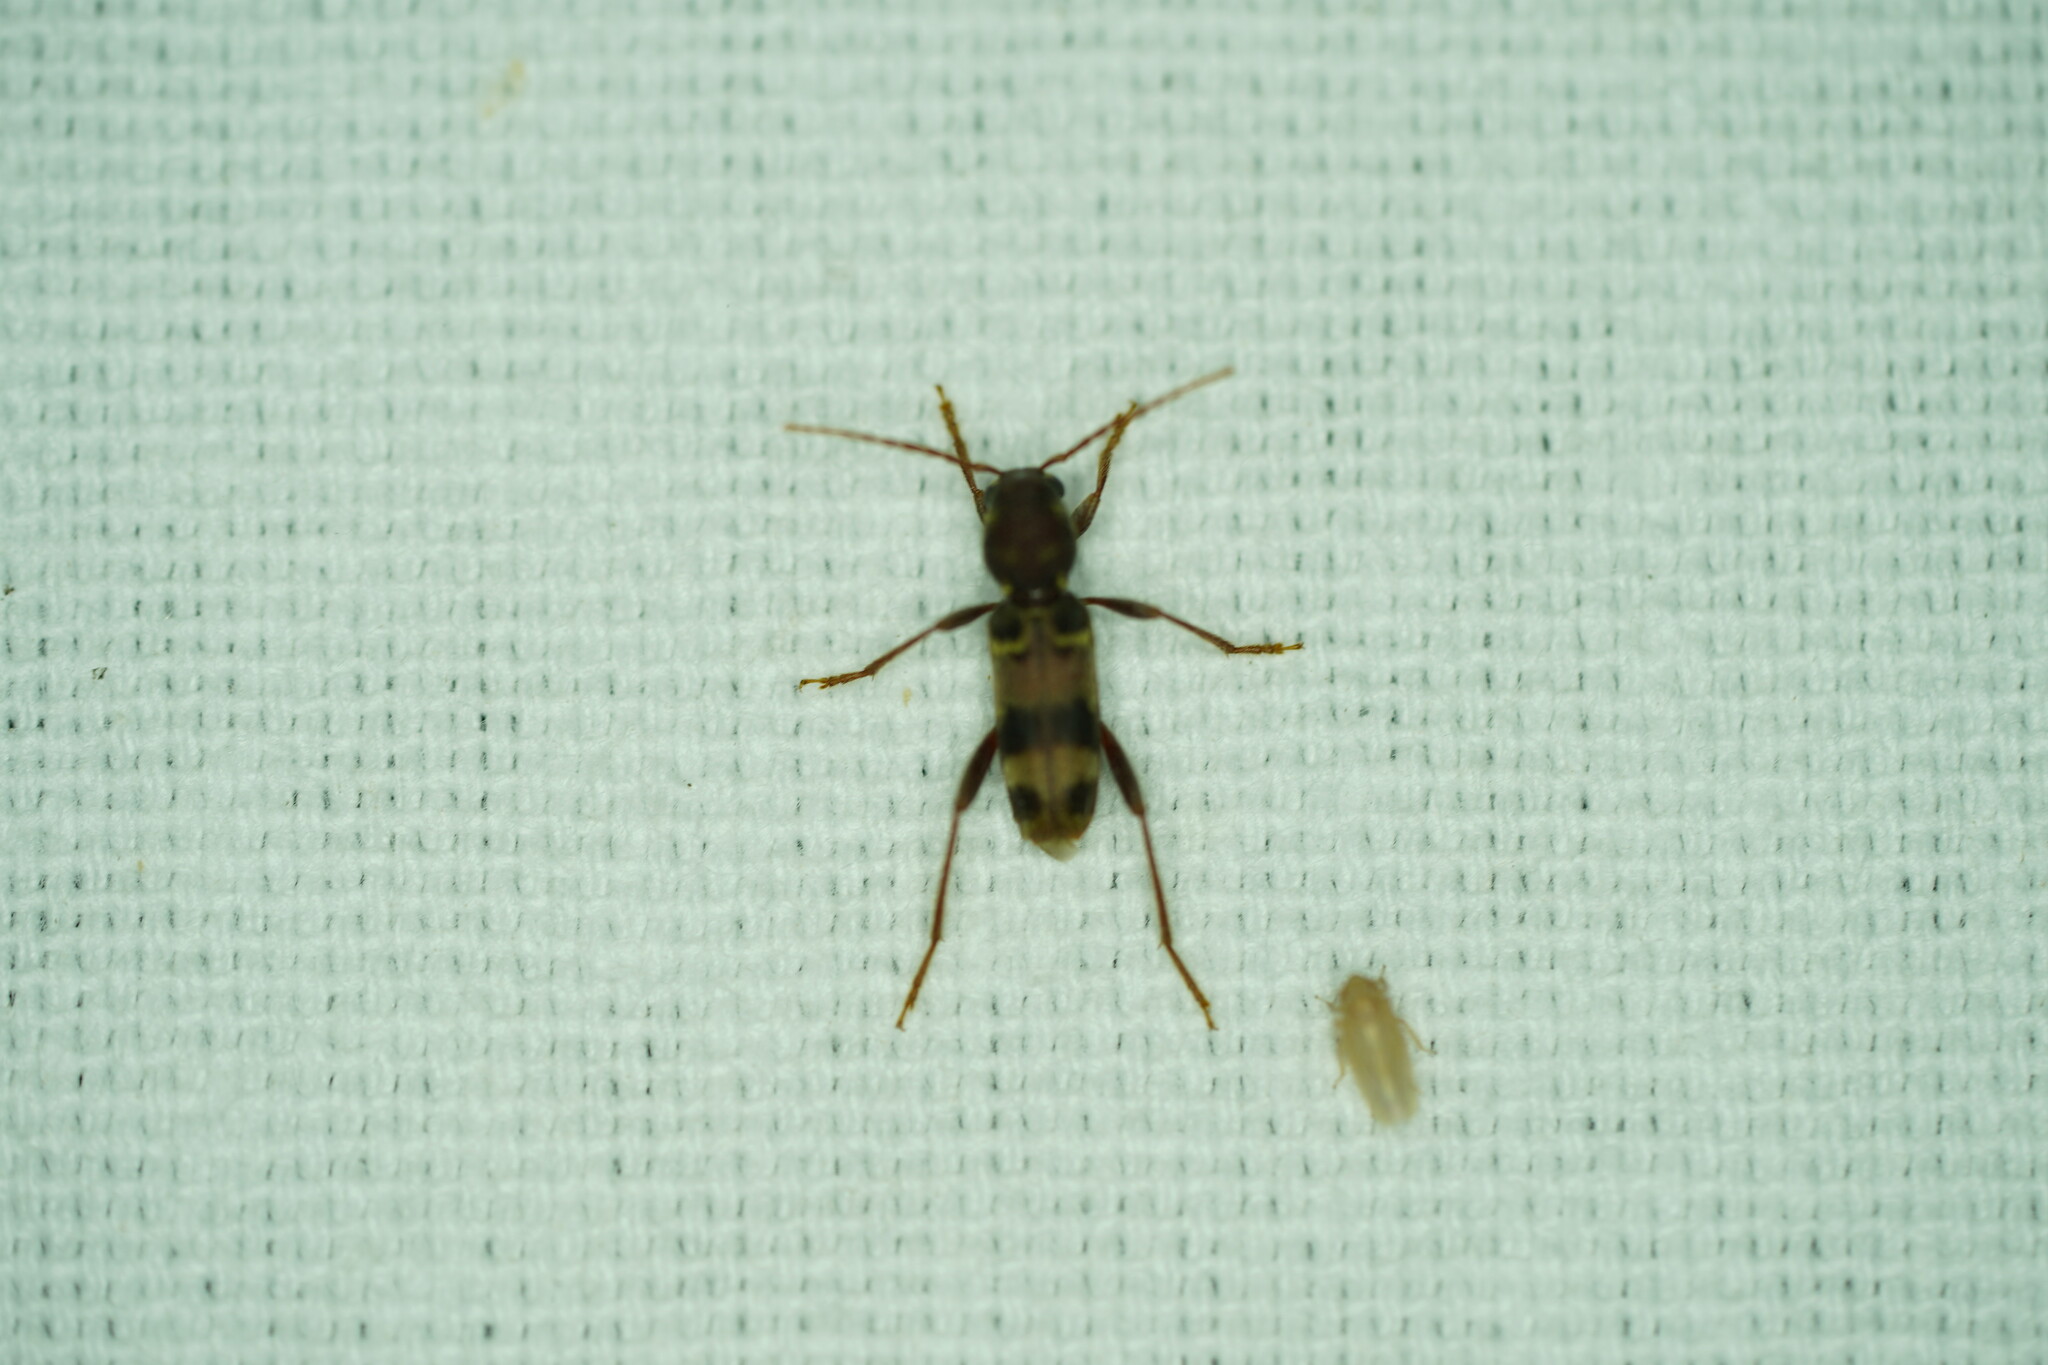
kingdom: Animalia
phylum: Arthropoda
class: Insecta
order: Coleoptera
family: Cerambycidae
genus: Xylotrechus
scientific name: Xylotrechus colonus
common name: Long-horned beetle
